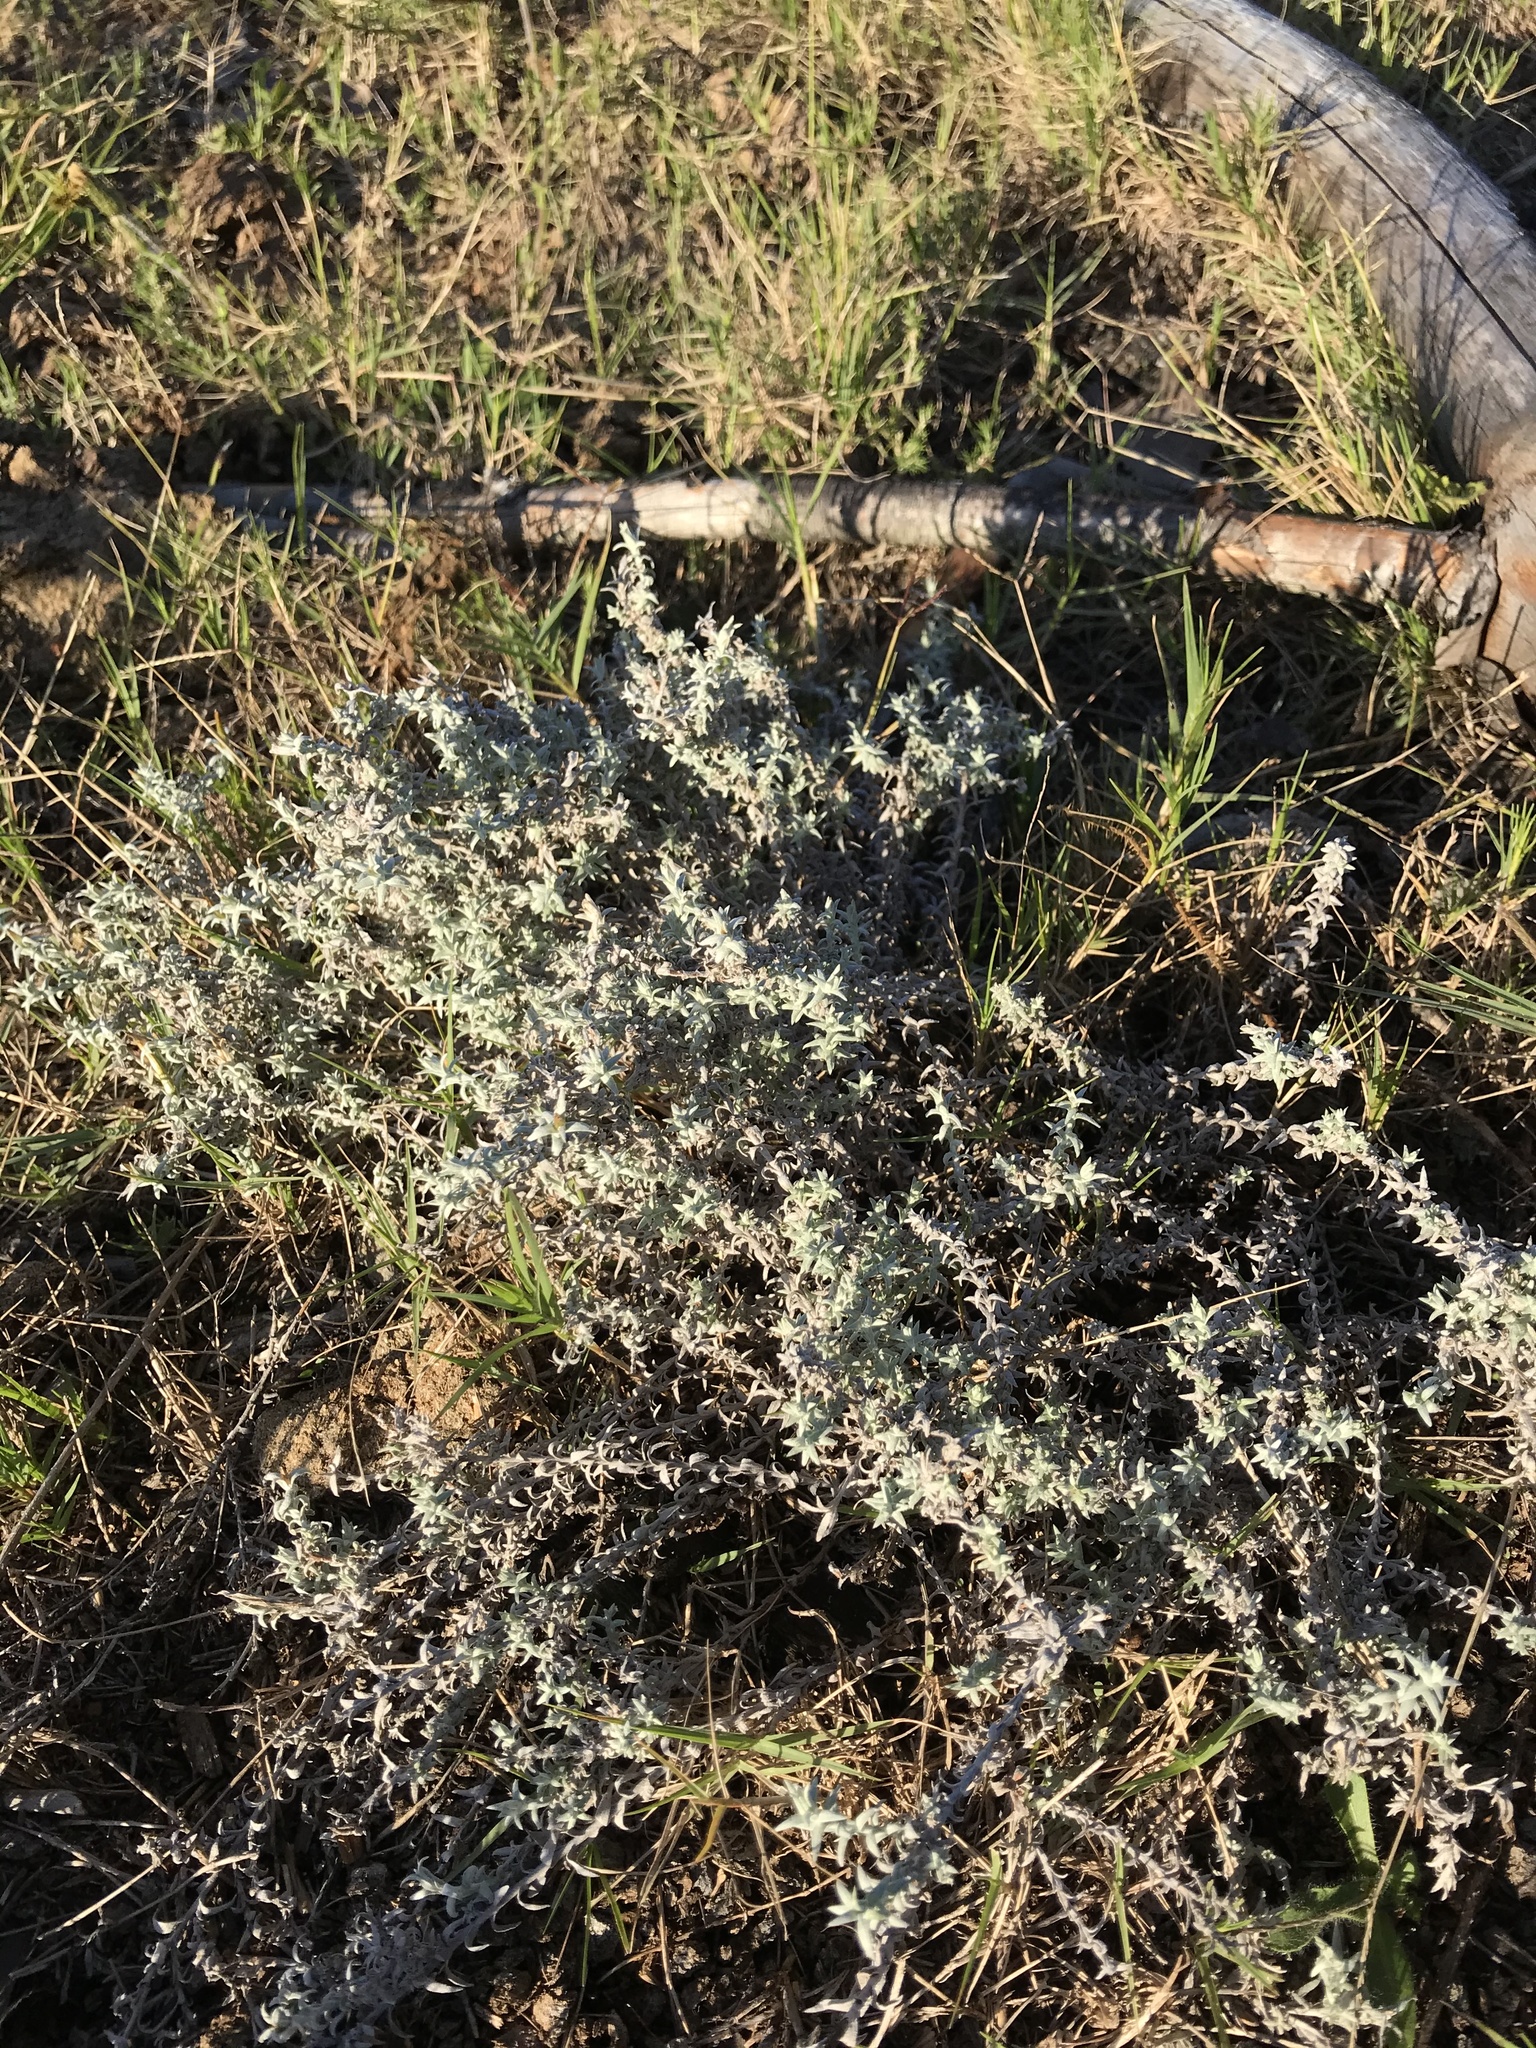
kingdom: Plantae
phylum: Tracheophyta
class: Magnoliopsida
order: Asterales
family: Asteraceae
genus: Lucilia
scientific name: Lucilia acutifolia
